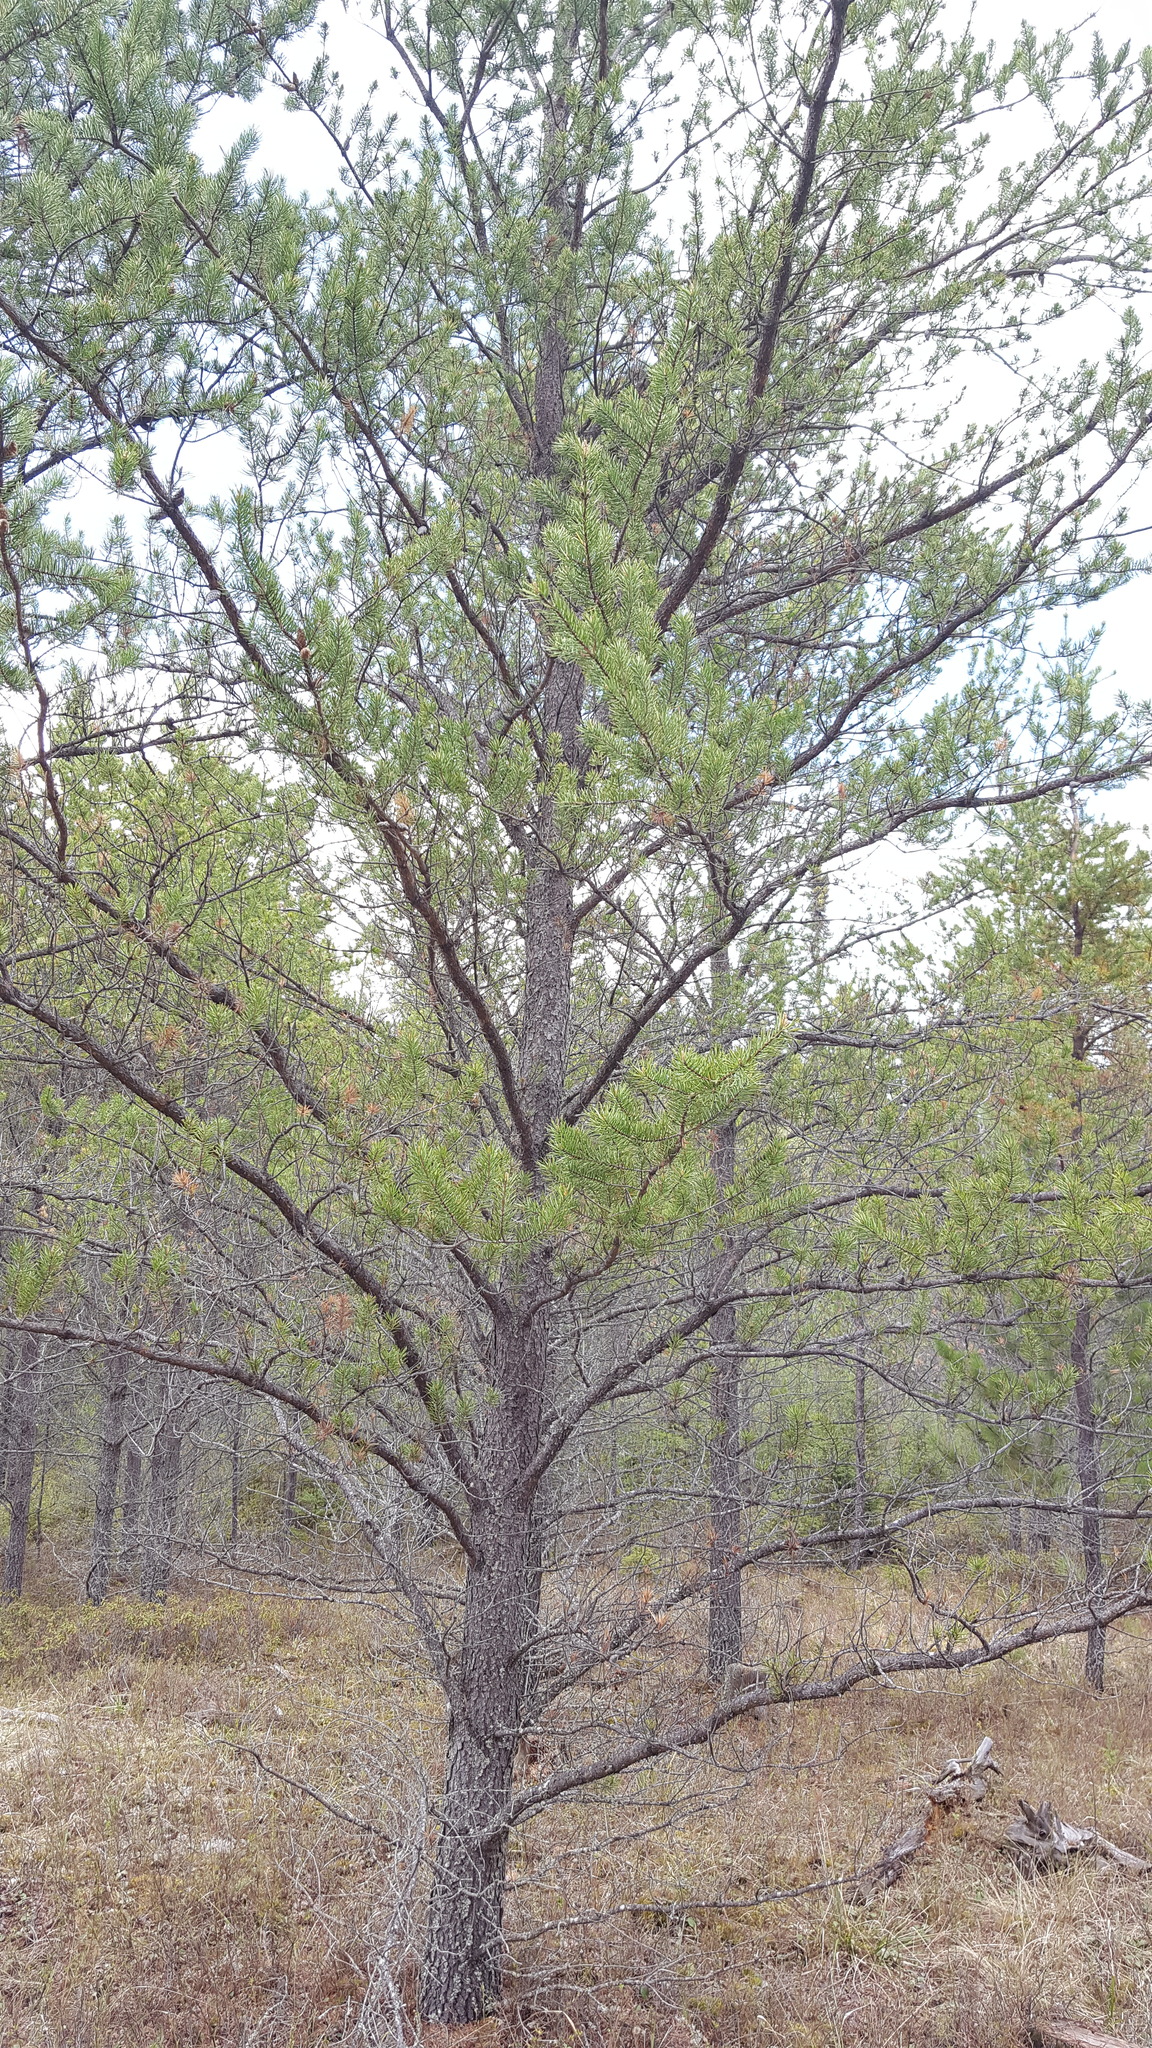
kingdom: Plantae
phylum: Tracheophyta
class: Pinopsida
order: Pinales
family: Pinaceae
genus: Pinus
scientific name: Pinus banksiana
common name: Jack pine
